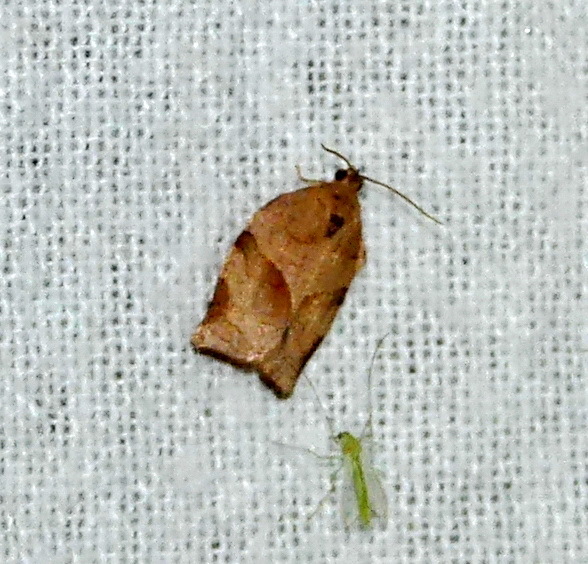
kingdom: Animalia
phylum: Arthropoda
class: Insecta
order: Lepidoptera
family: Tortricidae
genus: Choristoneura
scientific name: Choristoneura rosaceana
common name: Oblique-banded leafroller moth
